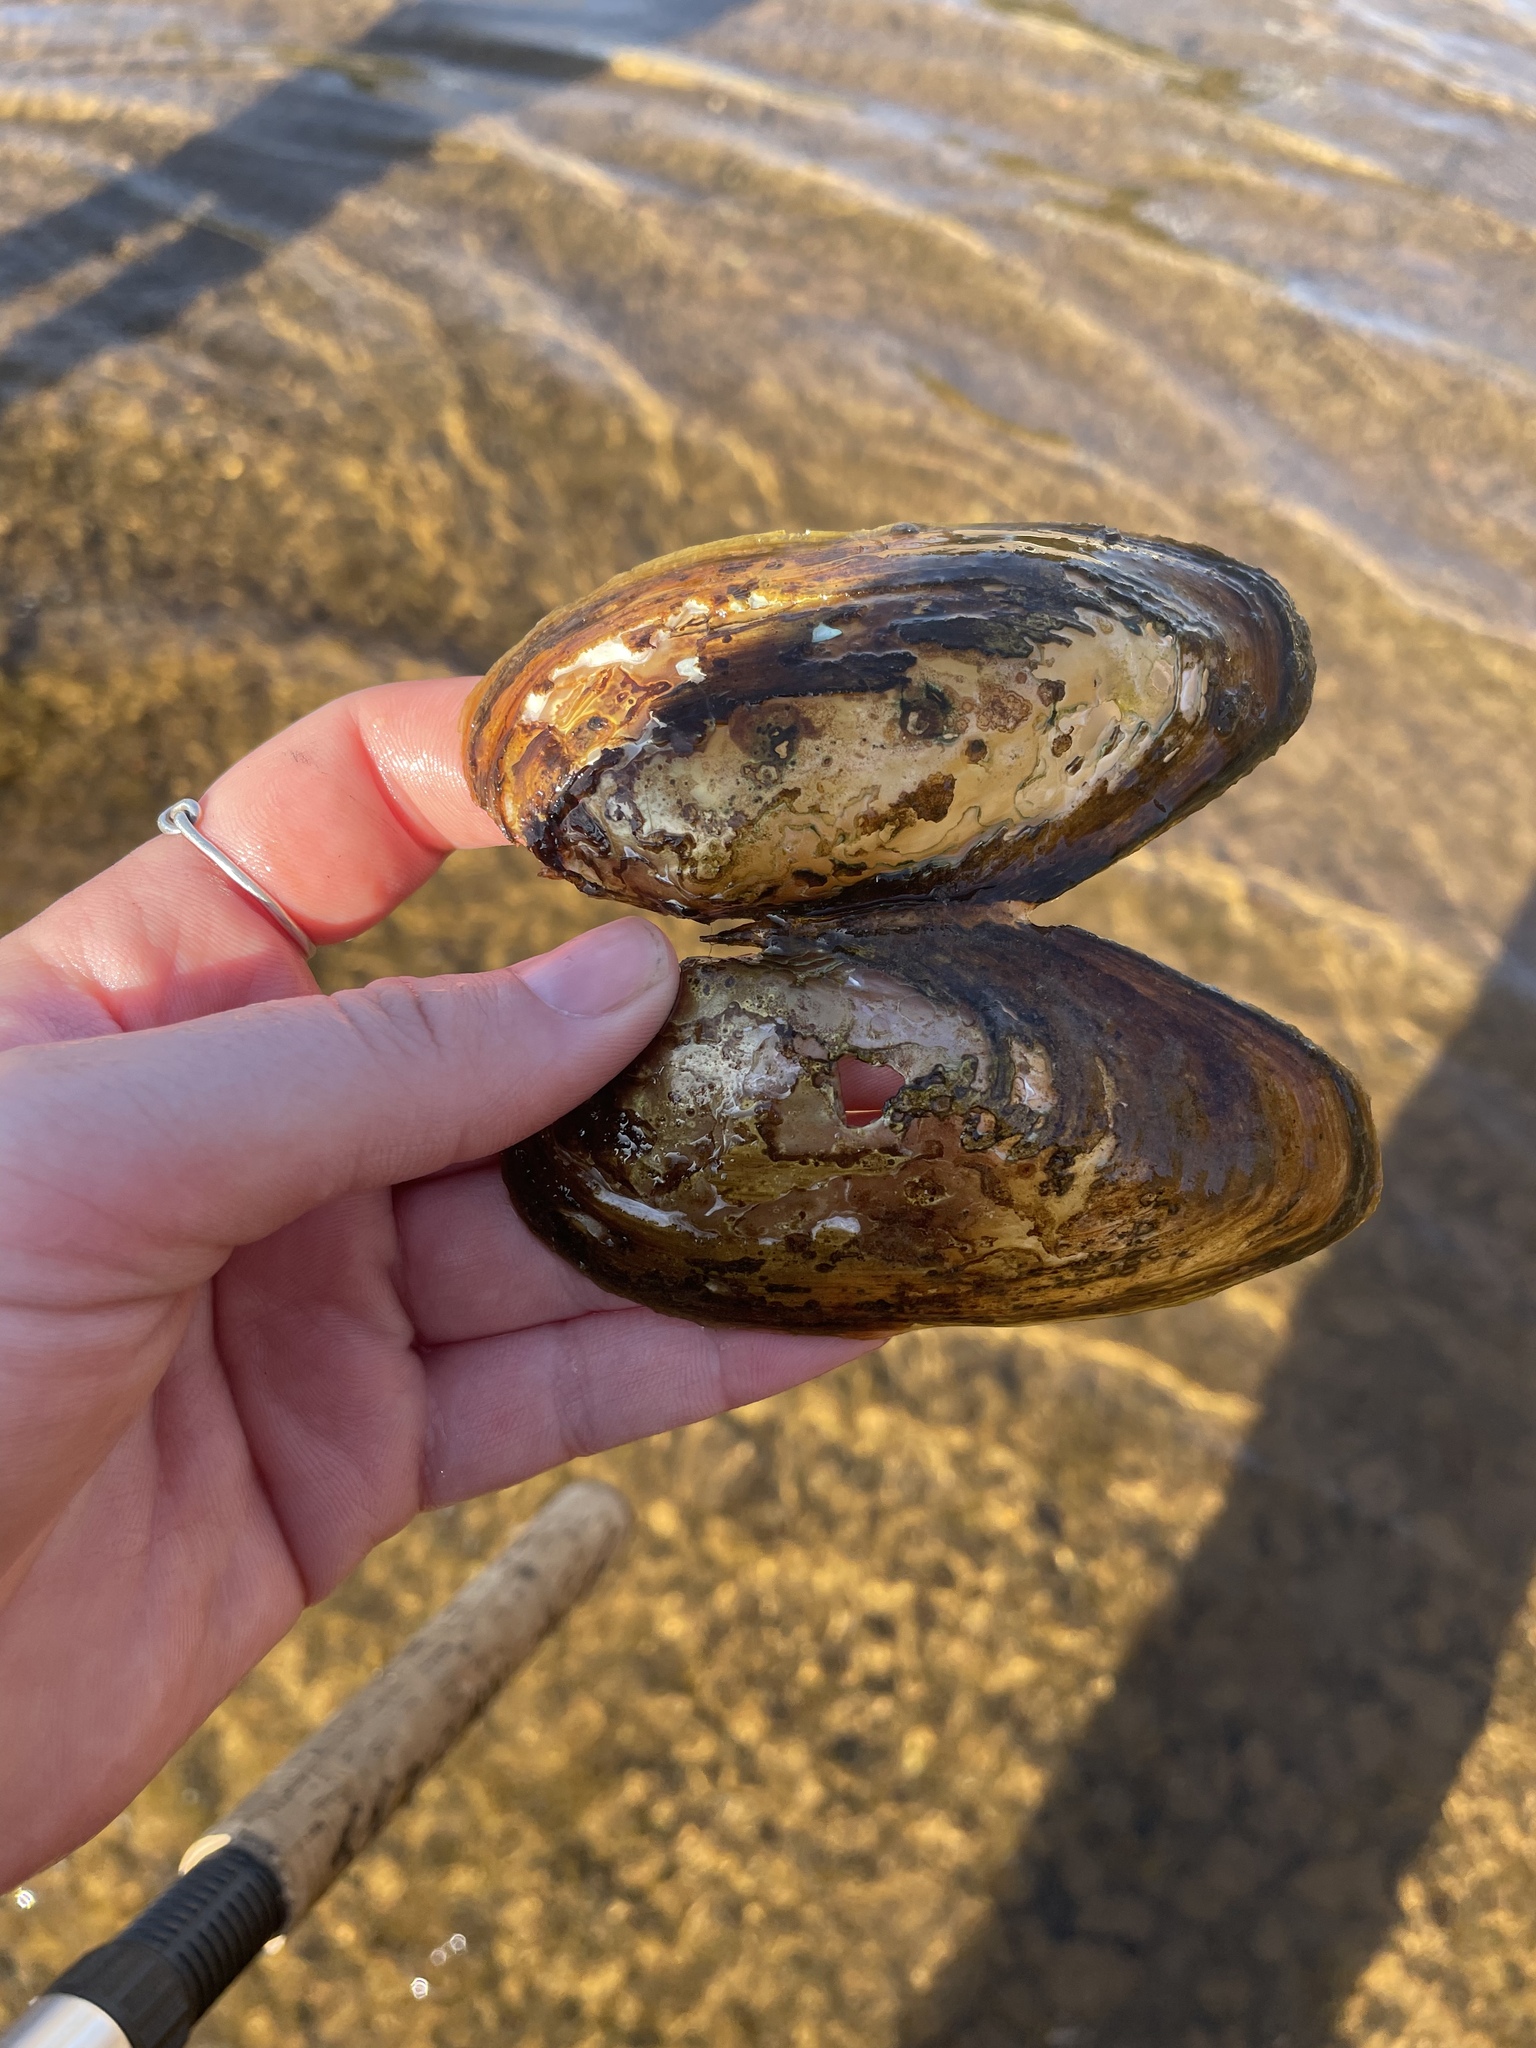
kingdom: Animalia
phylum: Mollusca
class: Bivalvia
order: Unionida
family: Unionidae
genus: Utterbackiana
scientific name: Utterbackiana implicata
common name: Alewife floater
